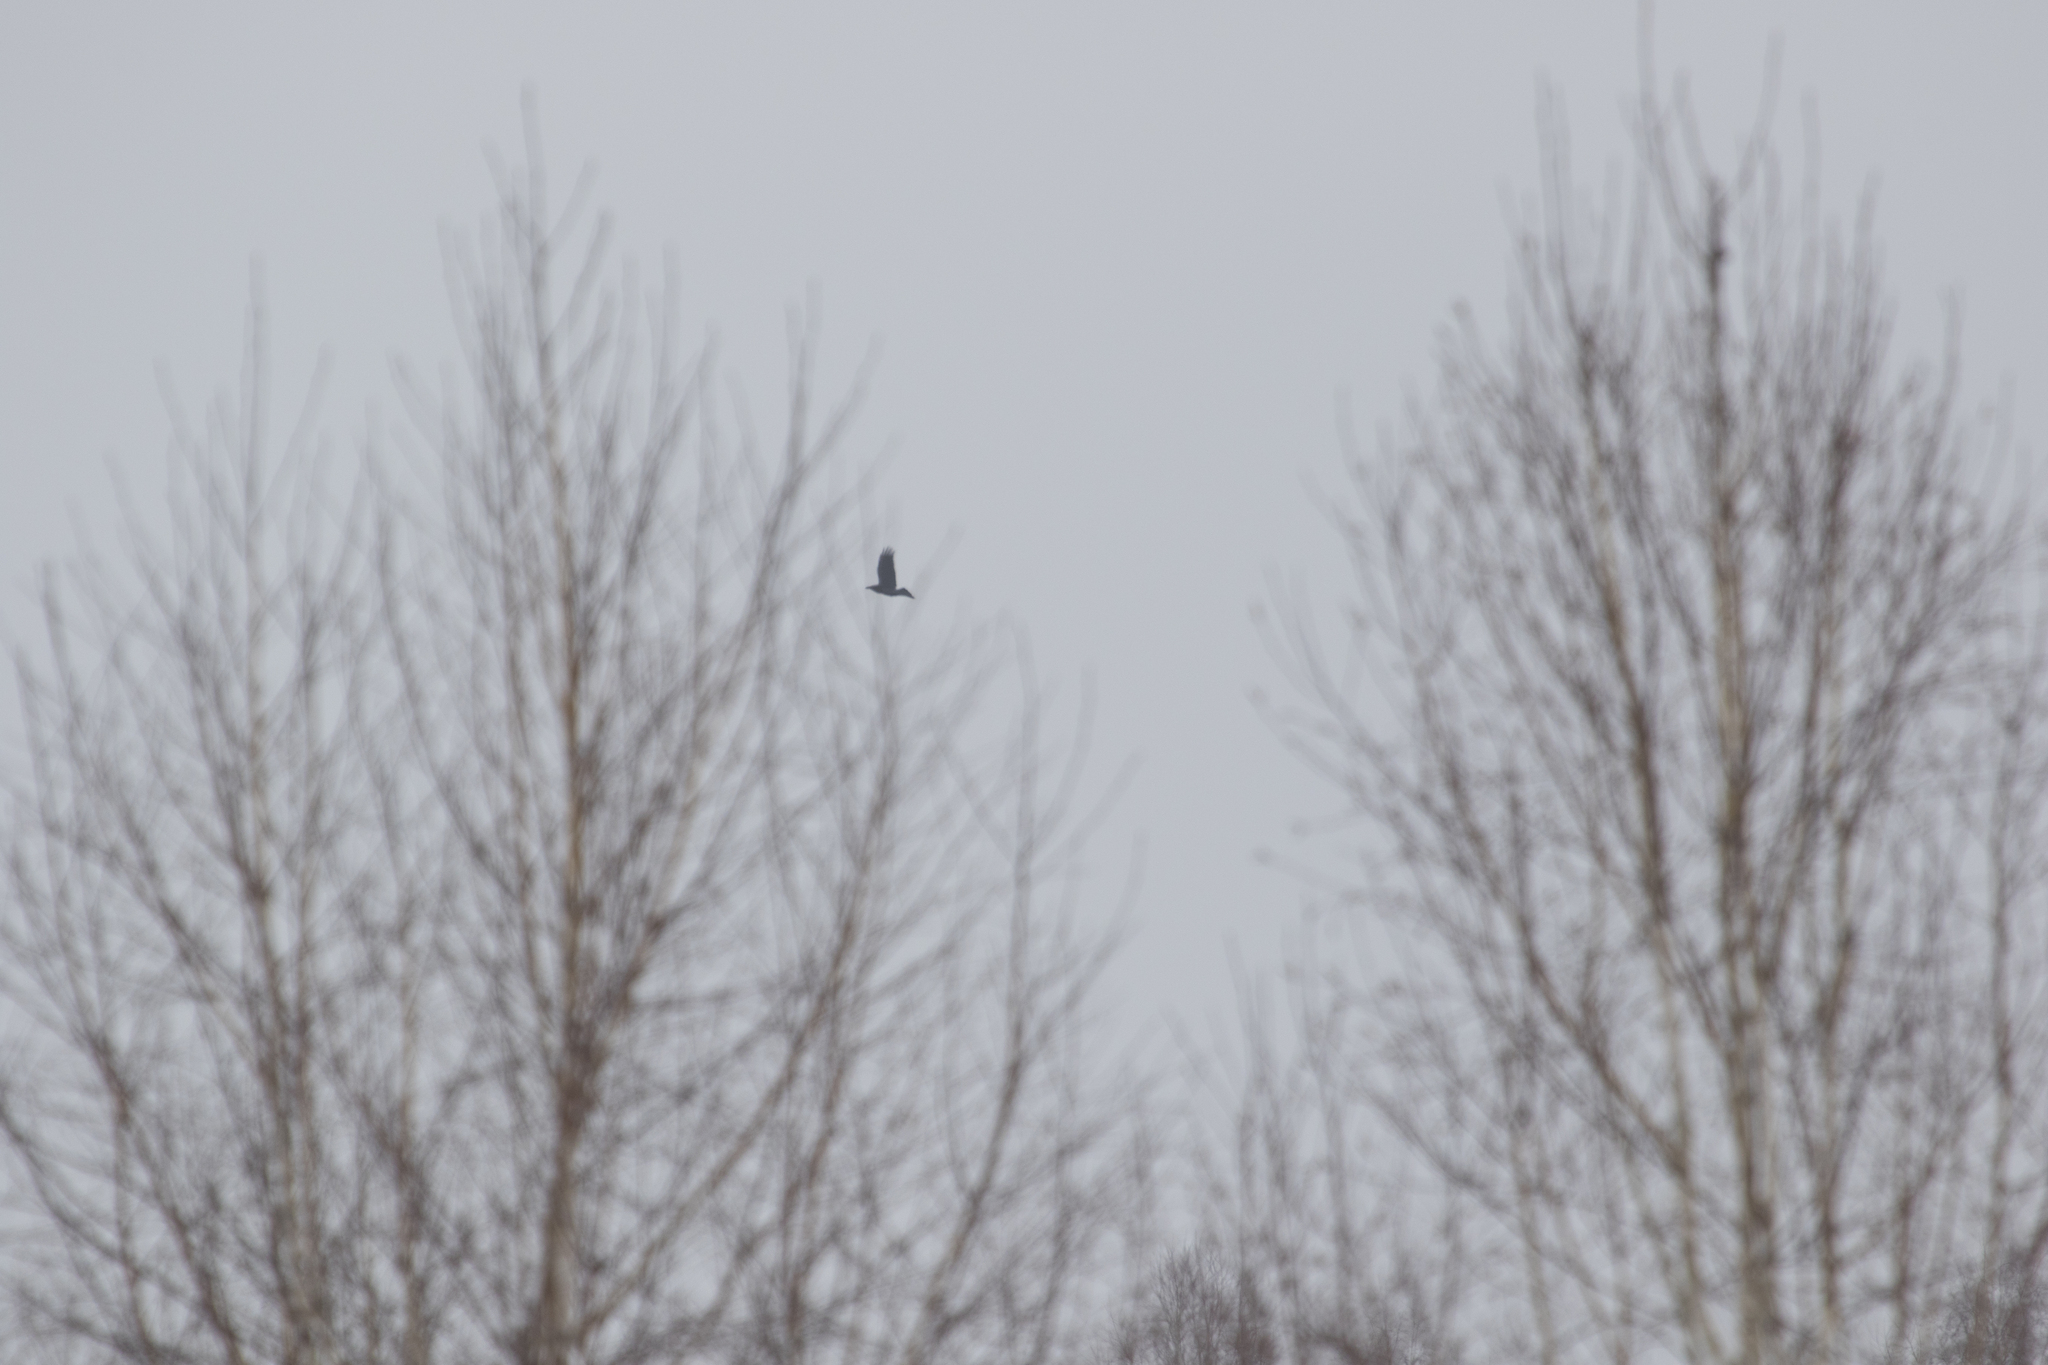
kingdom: Animalia
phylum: Chordata
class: Aves
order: Passeriformes
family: Corvidae
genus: Corvus
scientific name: Corvus corax
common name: Common raven
